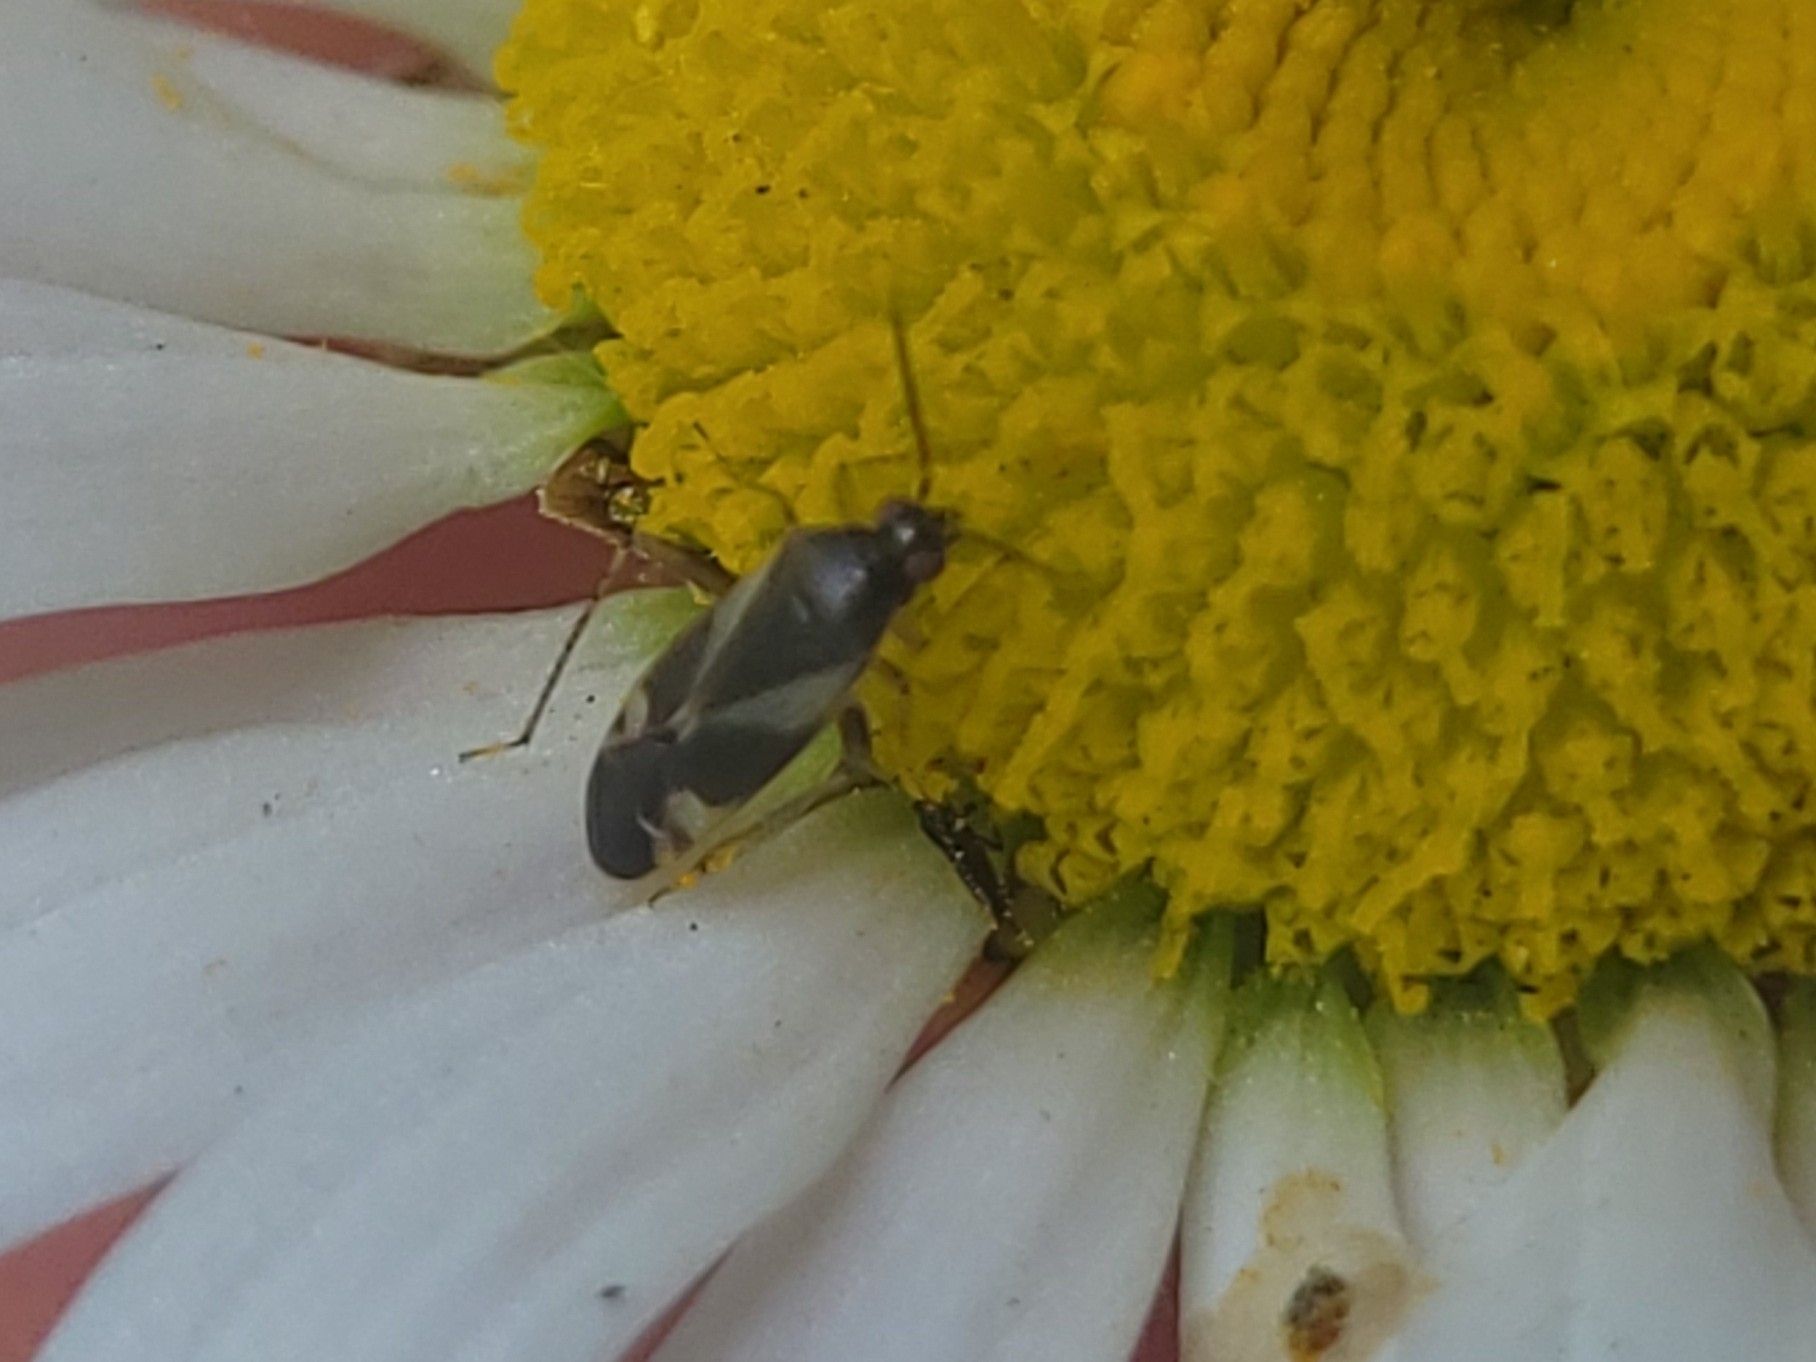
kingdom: Animalia
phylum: Arthropoda
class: Insecta
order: Hemiptera
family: Miridae
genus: Plagiognathus
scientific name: Plagiognathus obscurus
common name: Obscure plant bug
